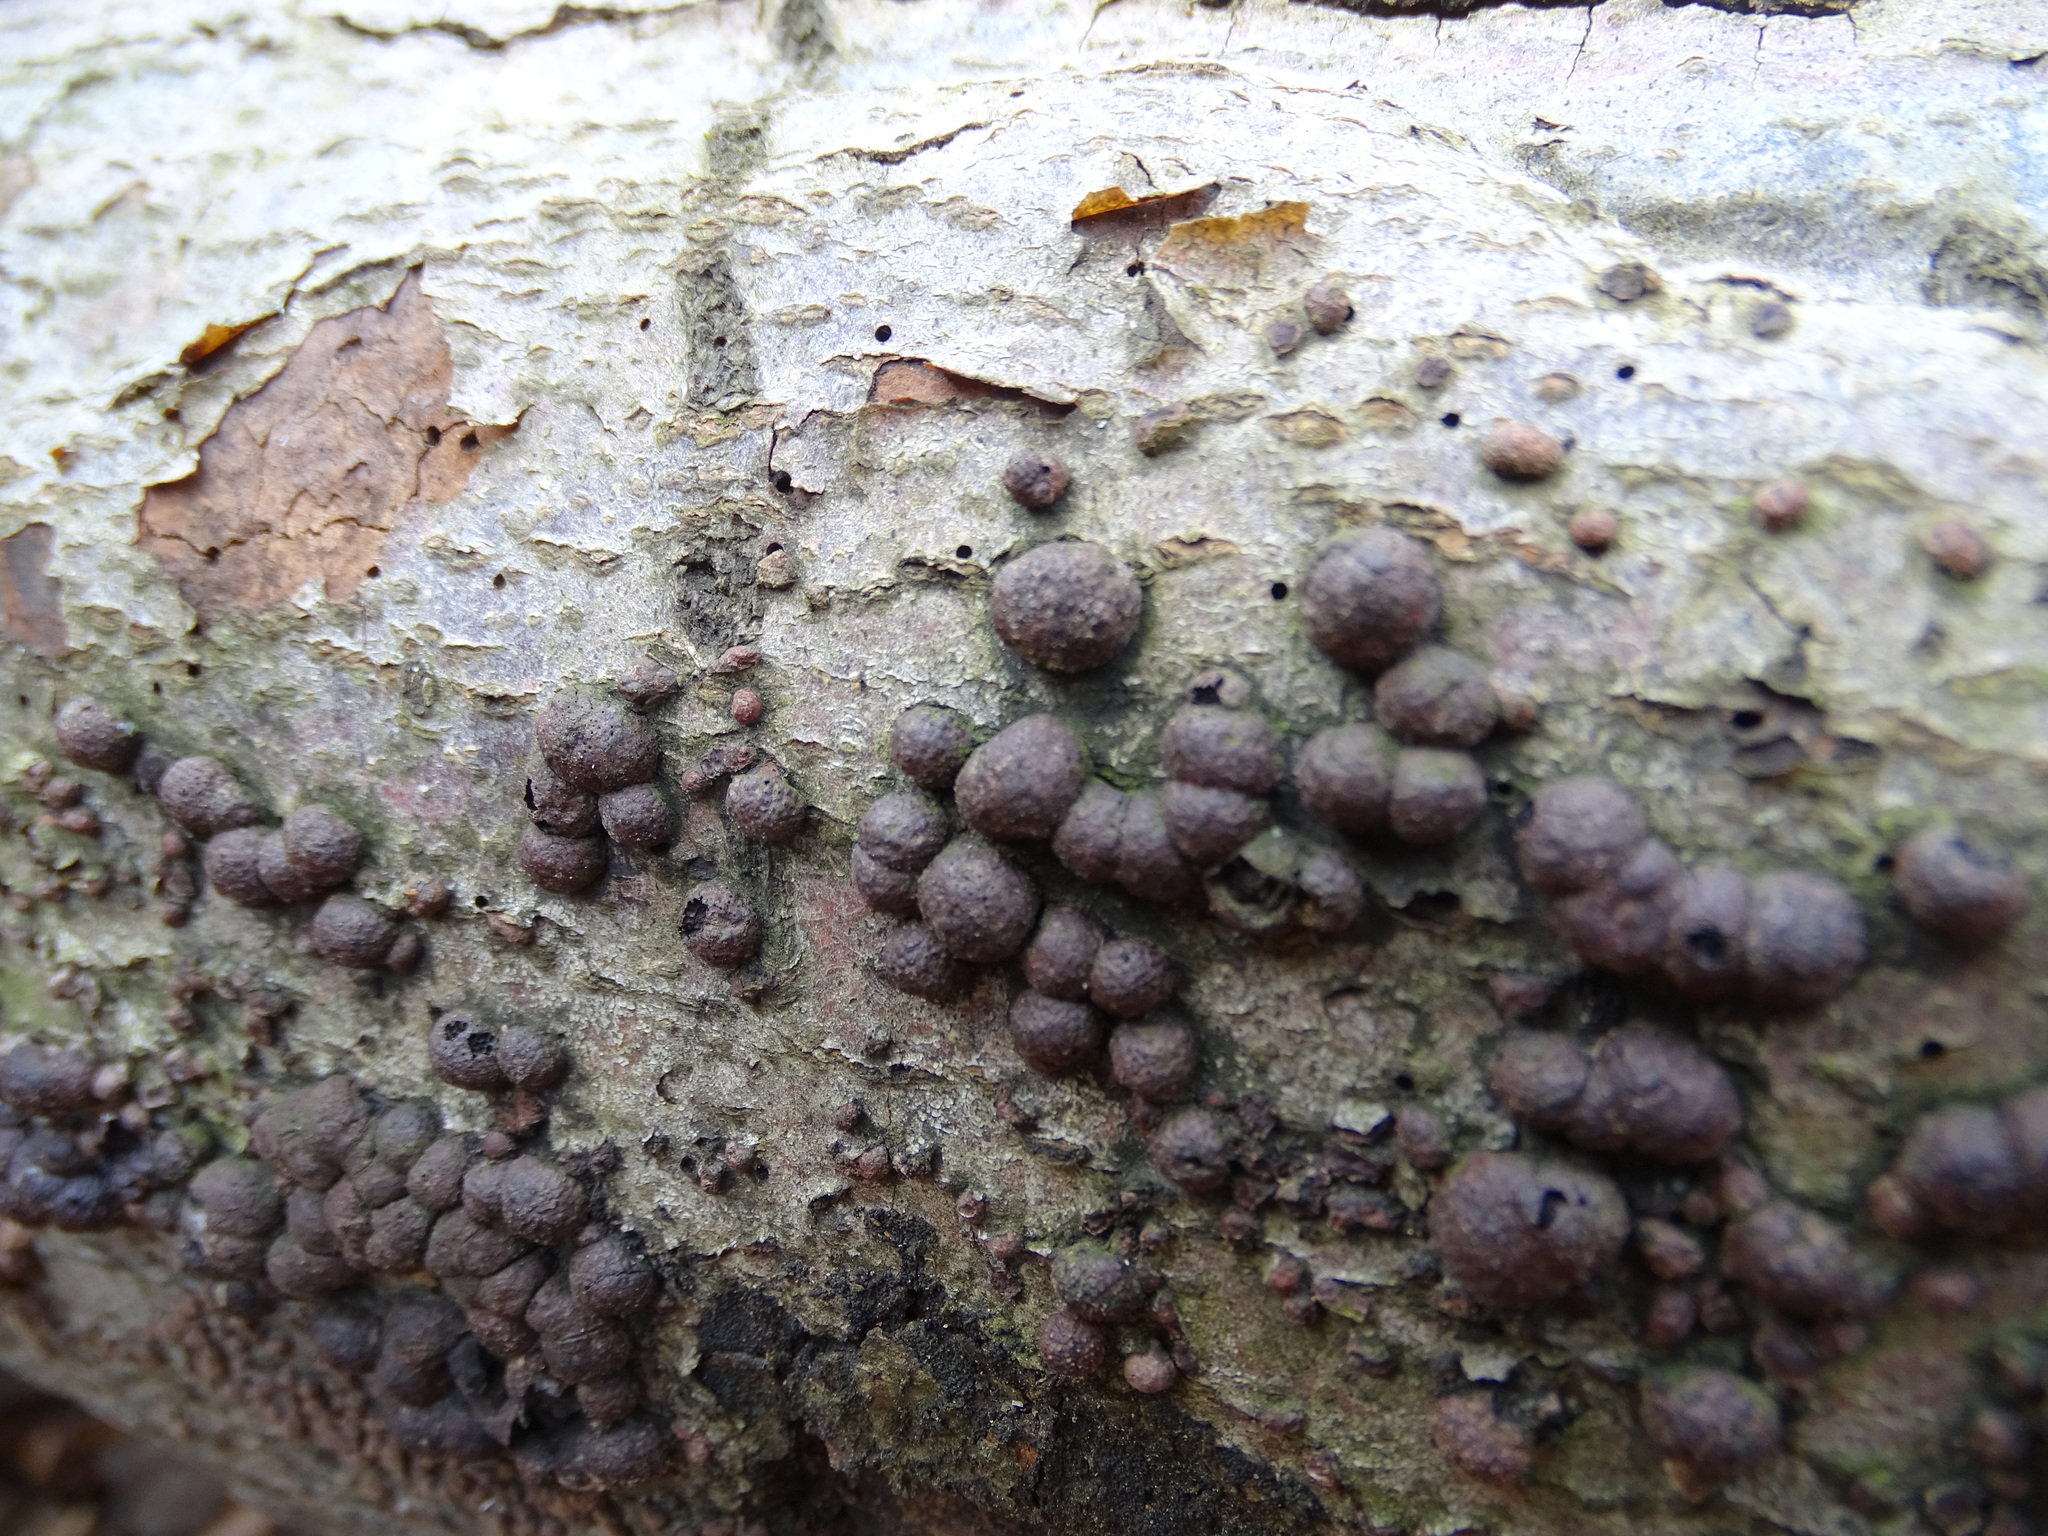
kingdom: Fungi
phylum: Ascomycota
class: Sordariomycetes
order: Xylariales
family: Hypoxylaceae
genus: Hypoxylon
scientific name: Hypoxylon fragiforme
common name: Beech woodwart
